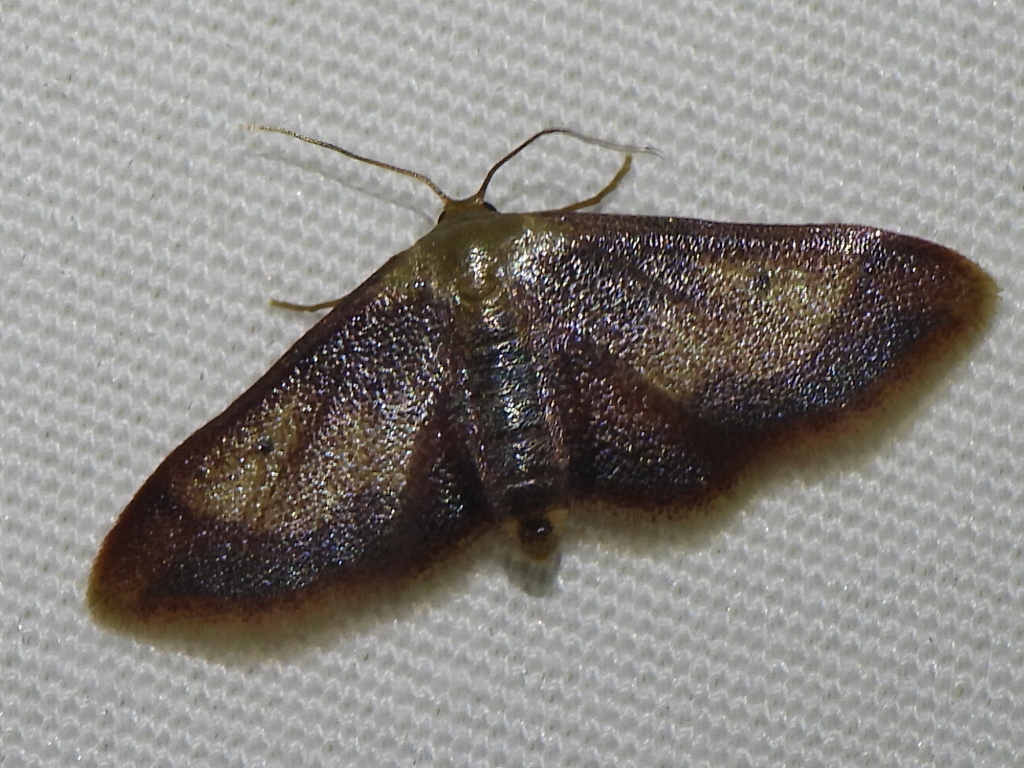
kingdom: Animalia
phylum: Arthropoda
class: Insecta
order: Lepidoptera
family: Geometridae
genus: Idaea
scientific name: Idaea demissaria
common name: Red-bordered wave
